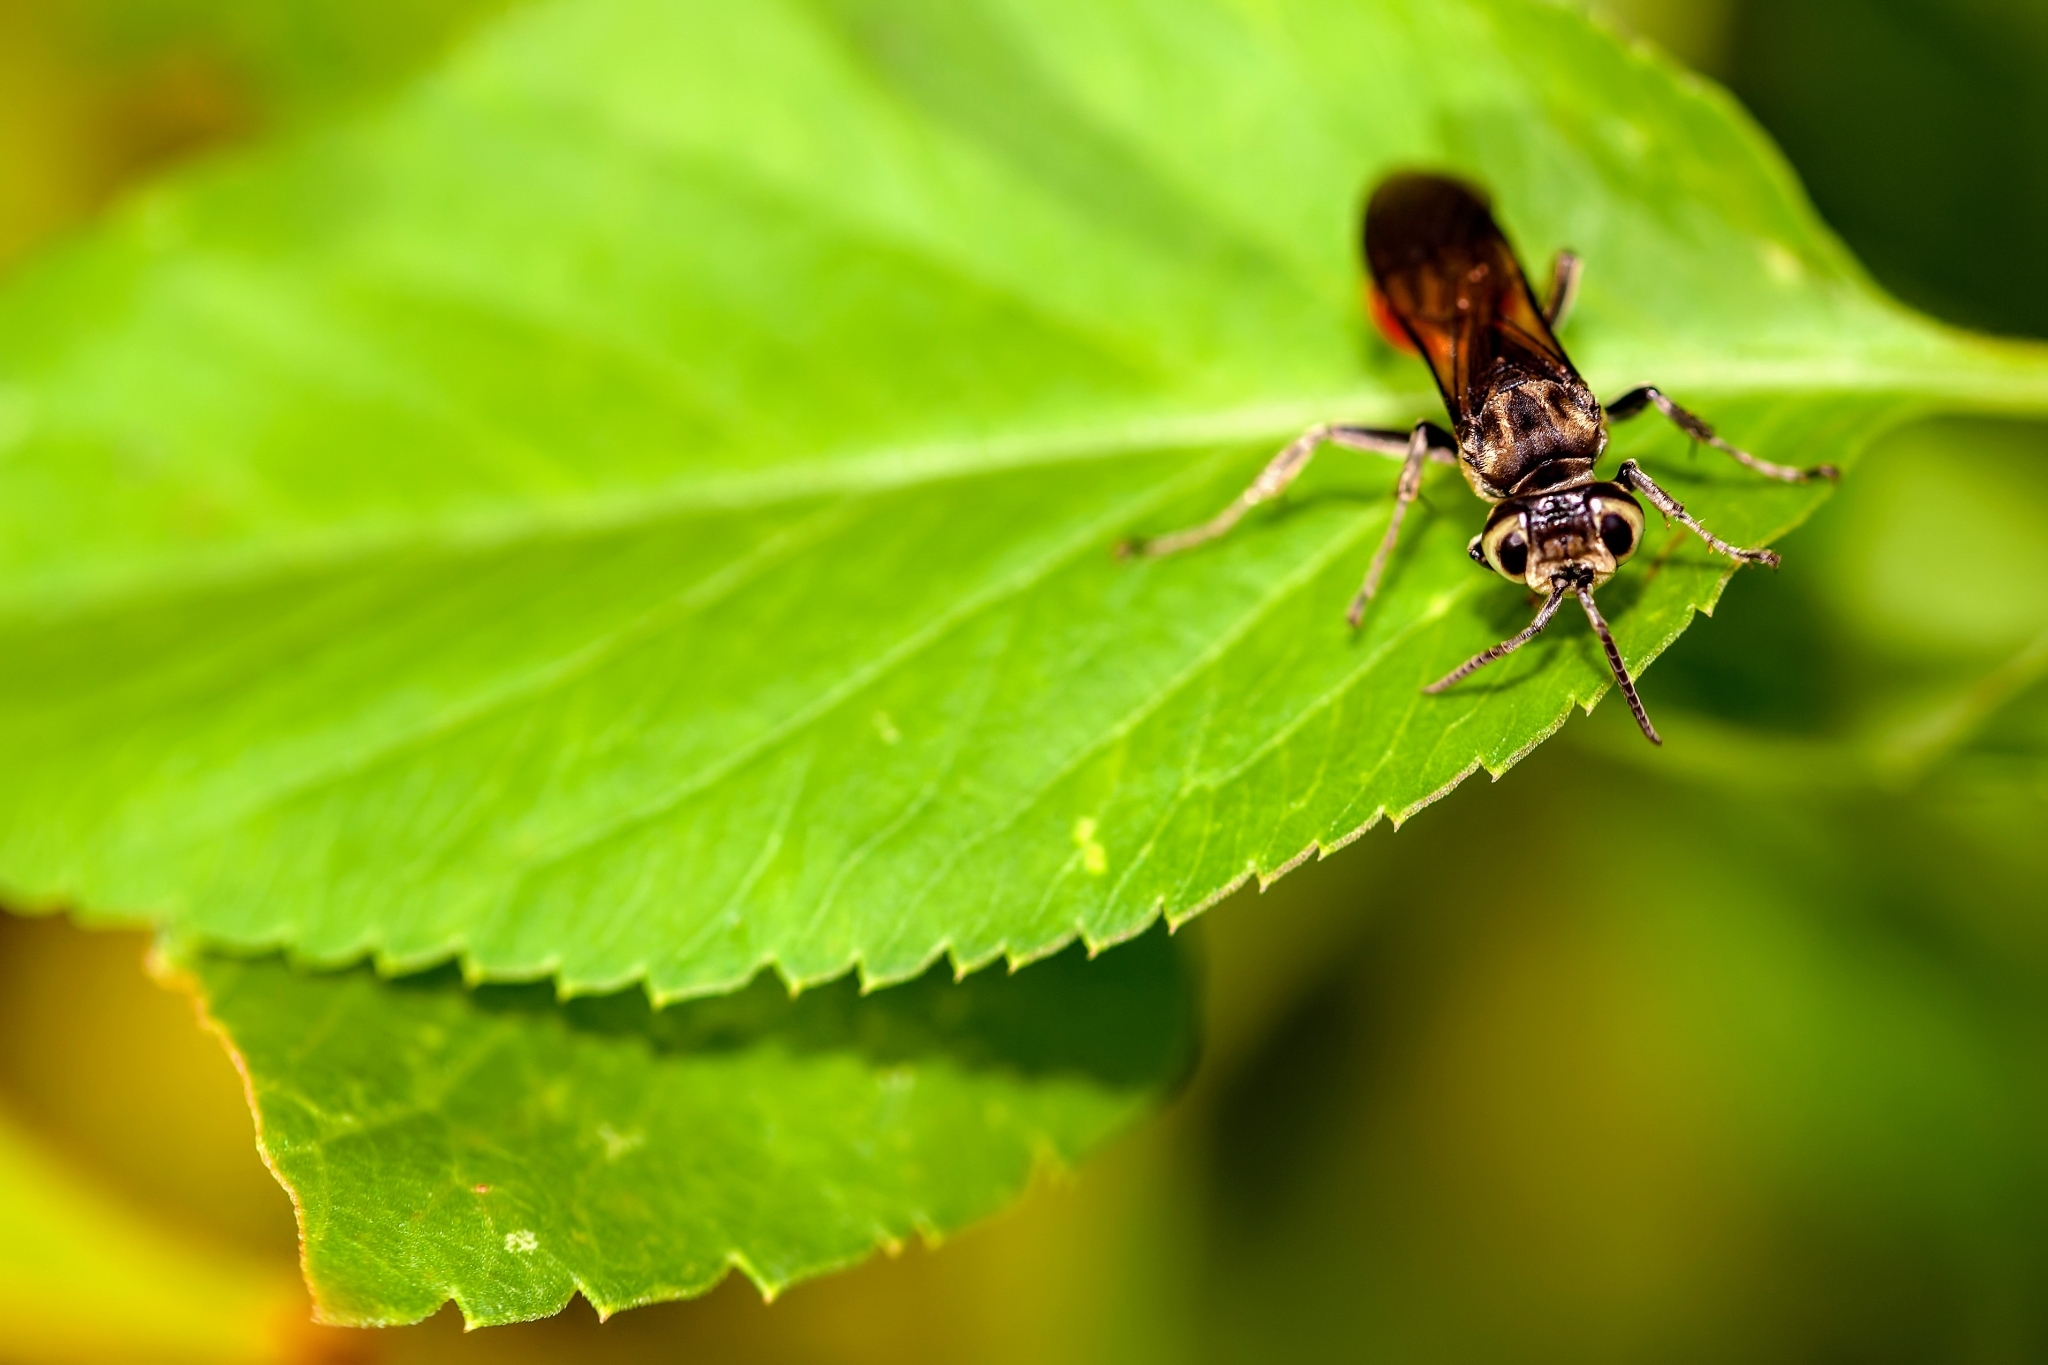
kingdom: Animalia
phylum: Arthropoda
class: Insecta
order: Hymenoptera
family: Crabronidae
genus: Larra
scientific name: Larra bicolor
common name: Wasp
